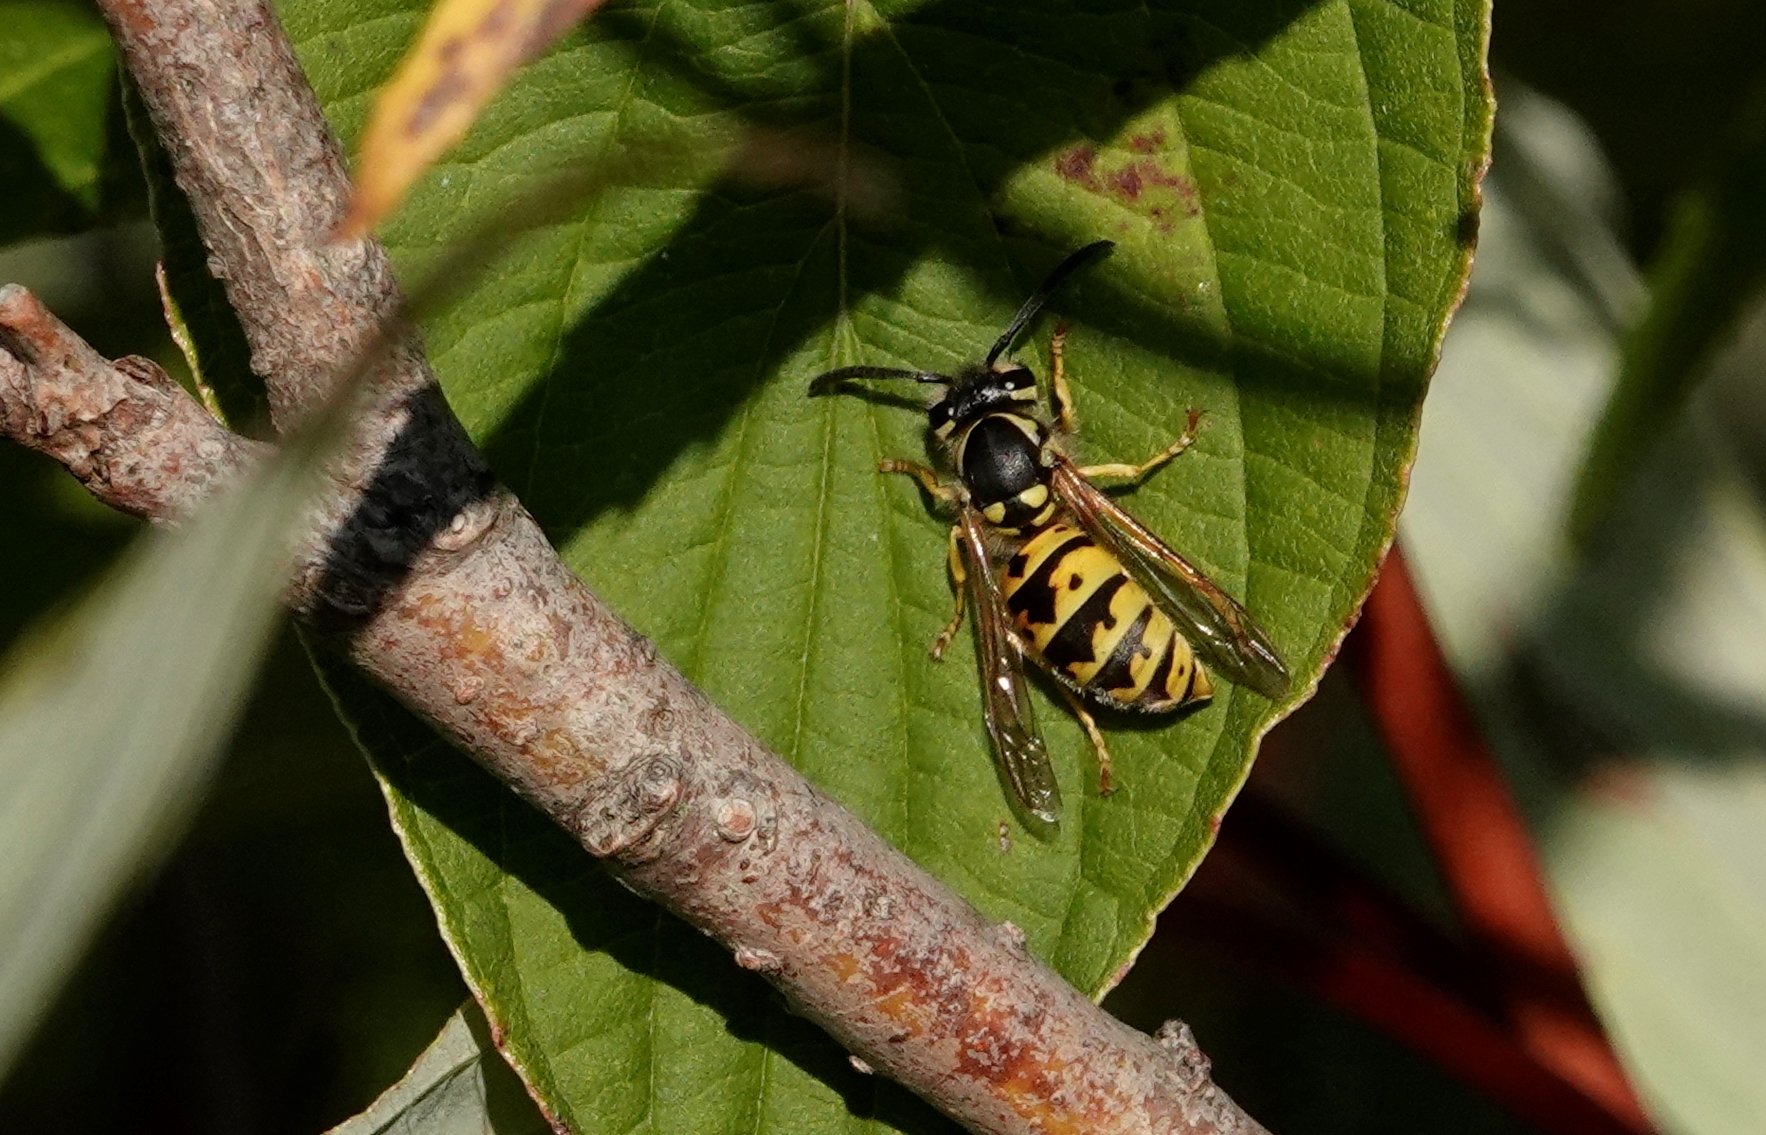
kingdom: Animalia
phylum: Arthropoda
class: Insecta
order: Hymenoptera
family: Vespidae
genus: Vespula
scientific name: Vespula germanica
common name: German wasp
